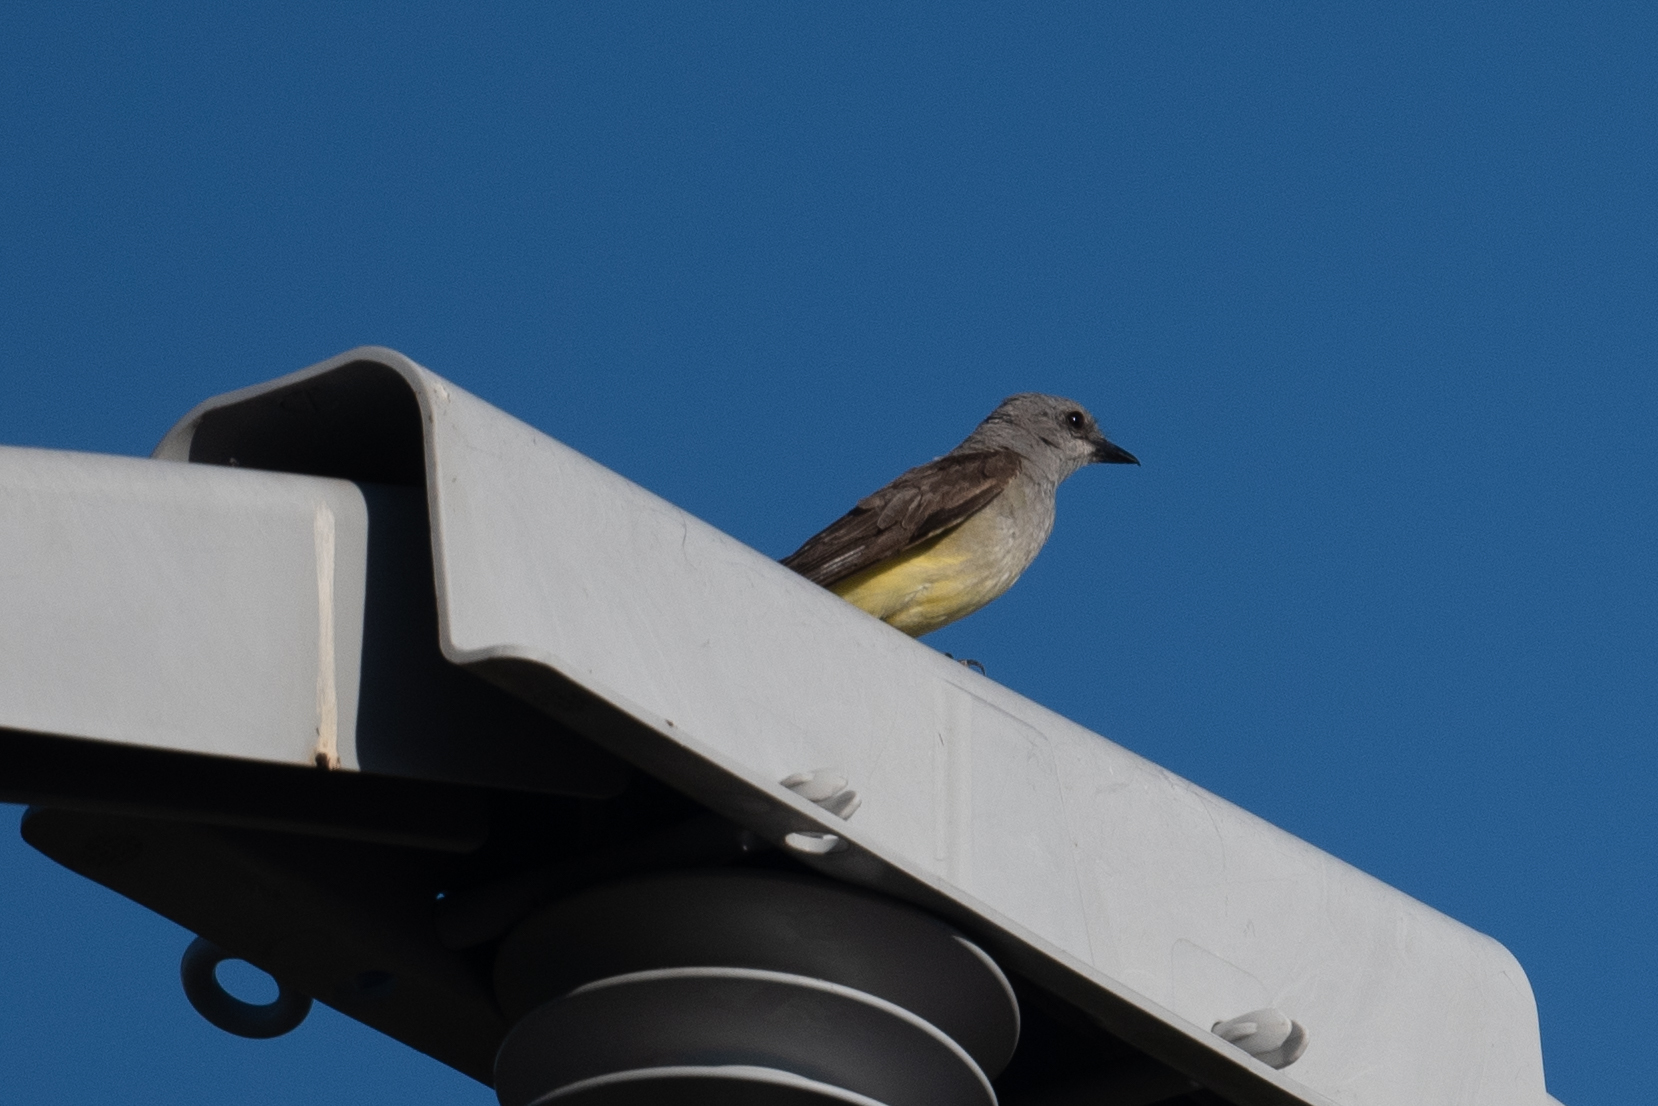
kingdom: Animalia
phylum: Chordata
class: Aves
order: Passeriformes
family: Tyrannidae
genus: Tyrannus
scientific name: Tyrannus verticalis
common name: Western kingbird
